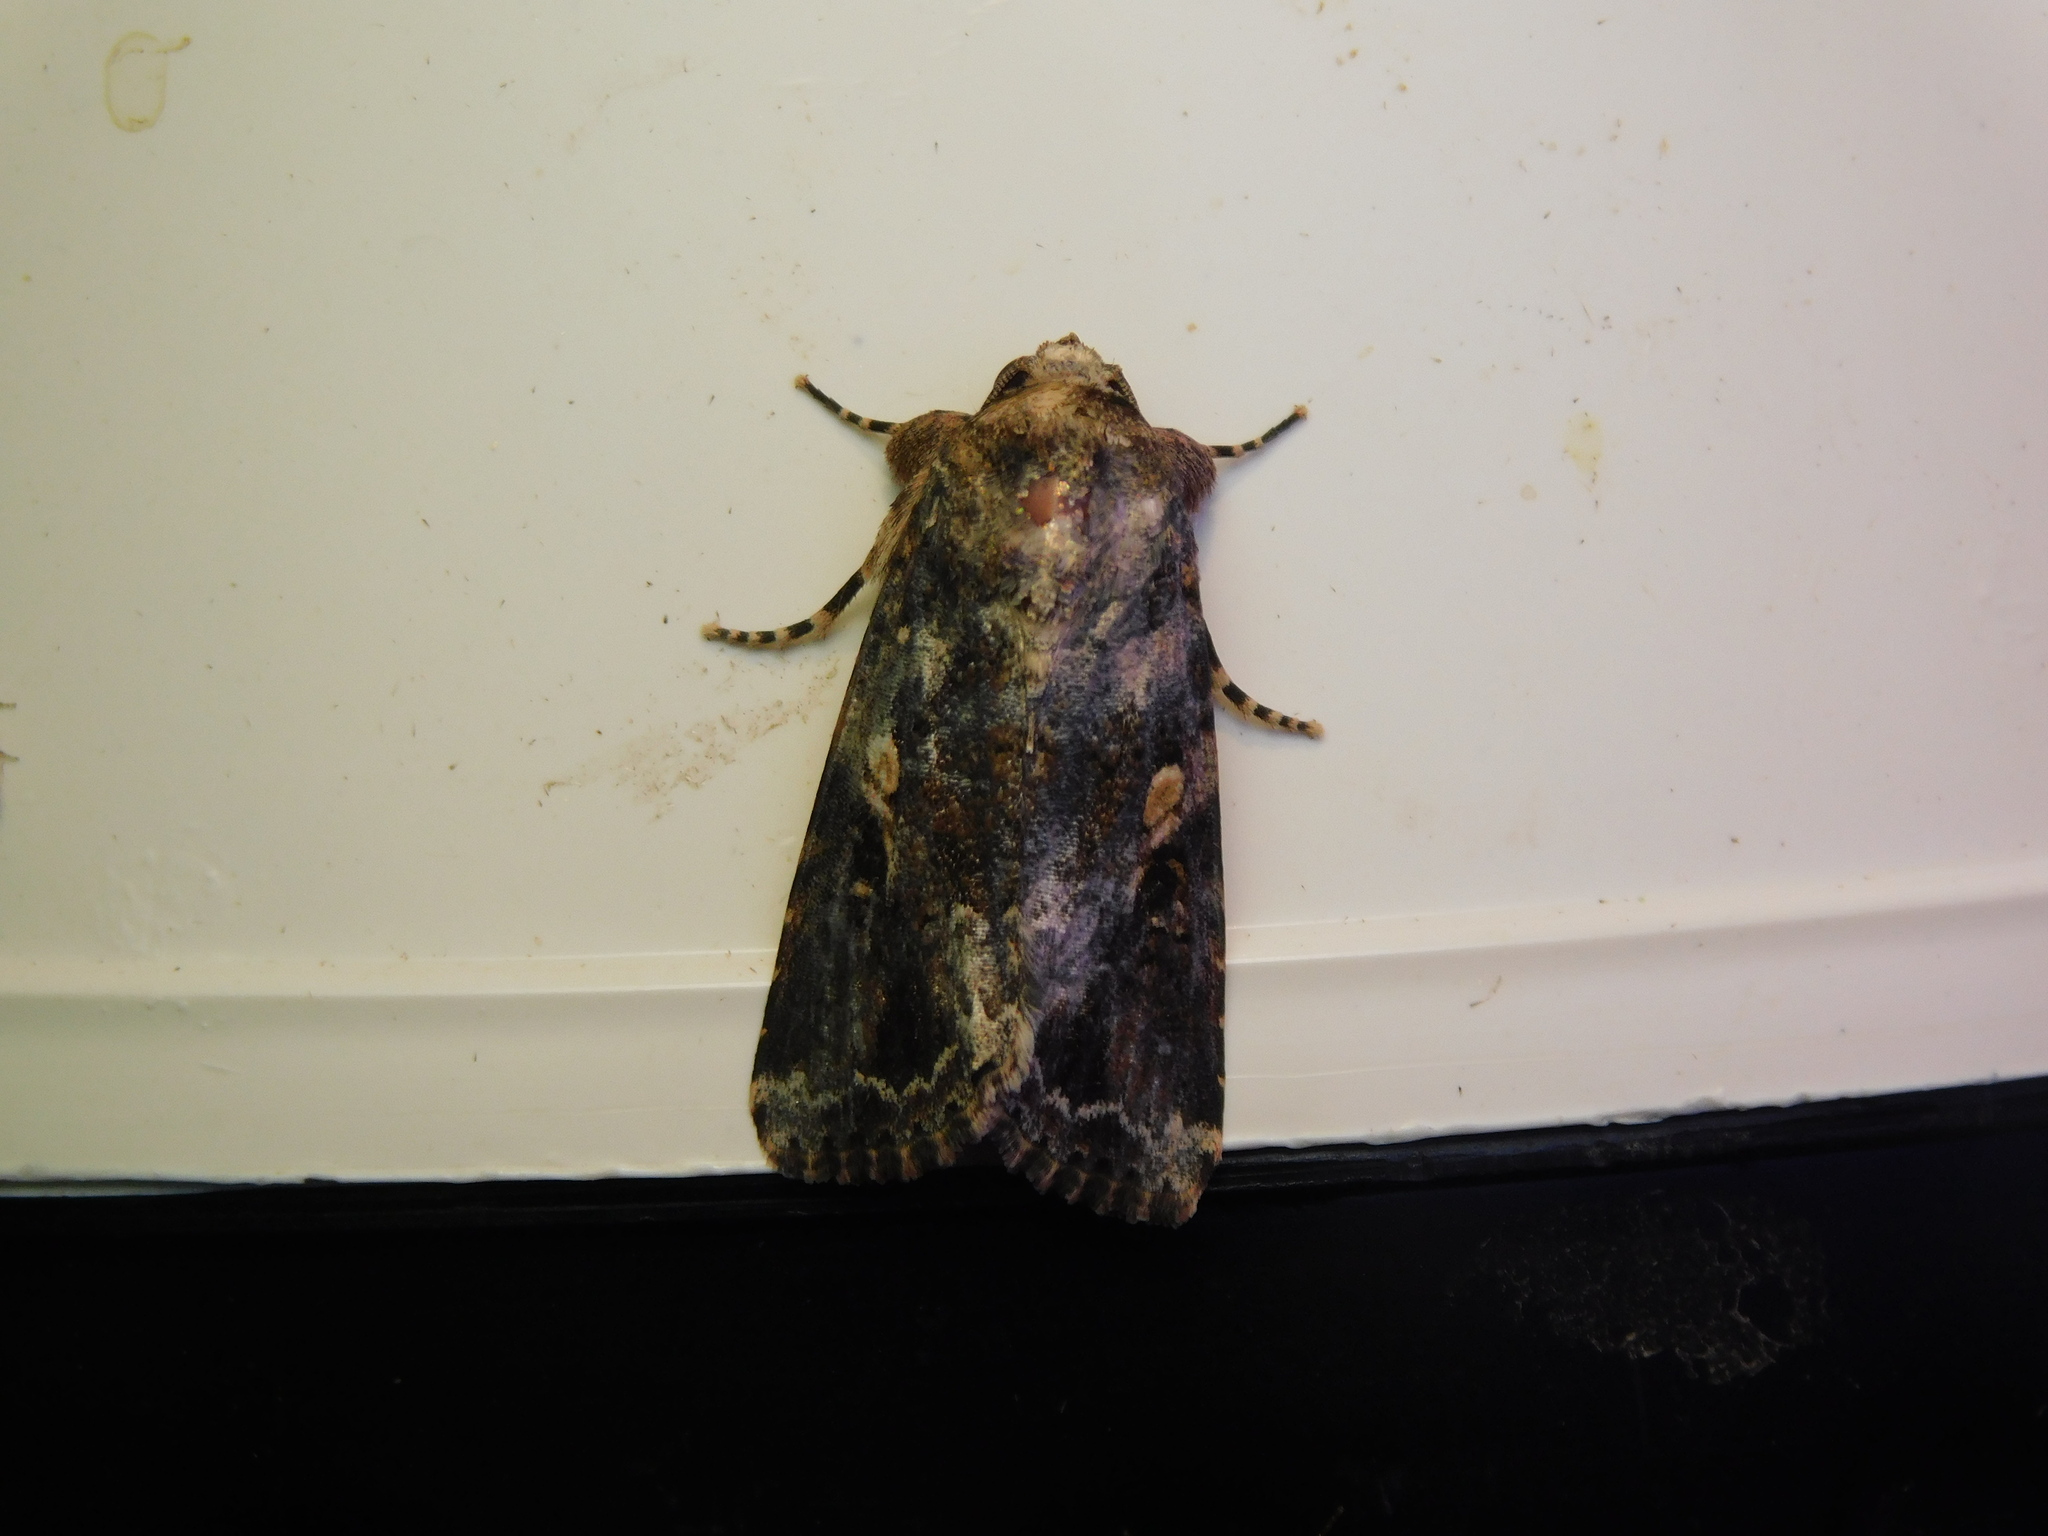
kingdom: Animalia
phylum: Arthropoda
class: Insecta
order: Lepidoptera
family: Noctuidae
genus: Spodoptera
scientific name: Spodoptera mauritia
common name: Lawn armyworm
